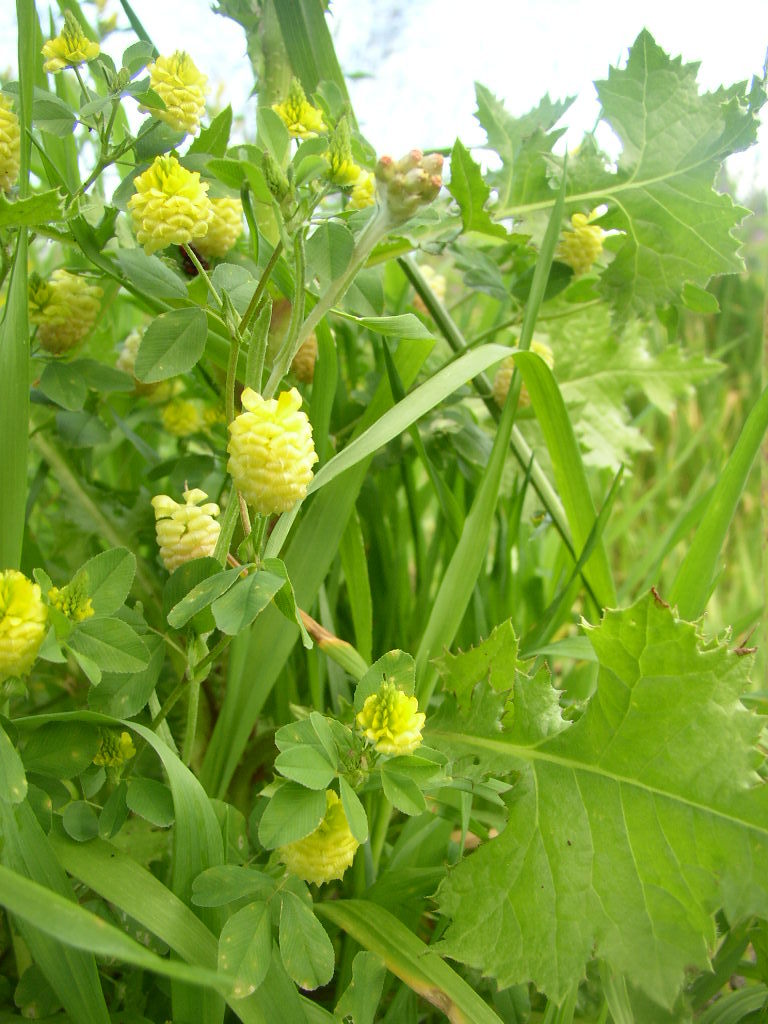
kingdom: Plantae
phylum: Tracheophyta
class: Magnoliopsida
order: Fabales
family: Fabaceae
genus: Trifolium
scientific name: Trifolium campestre
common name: Field clover
